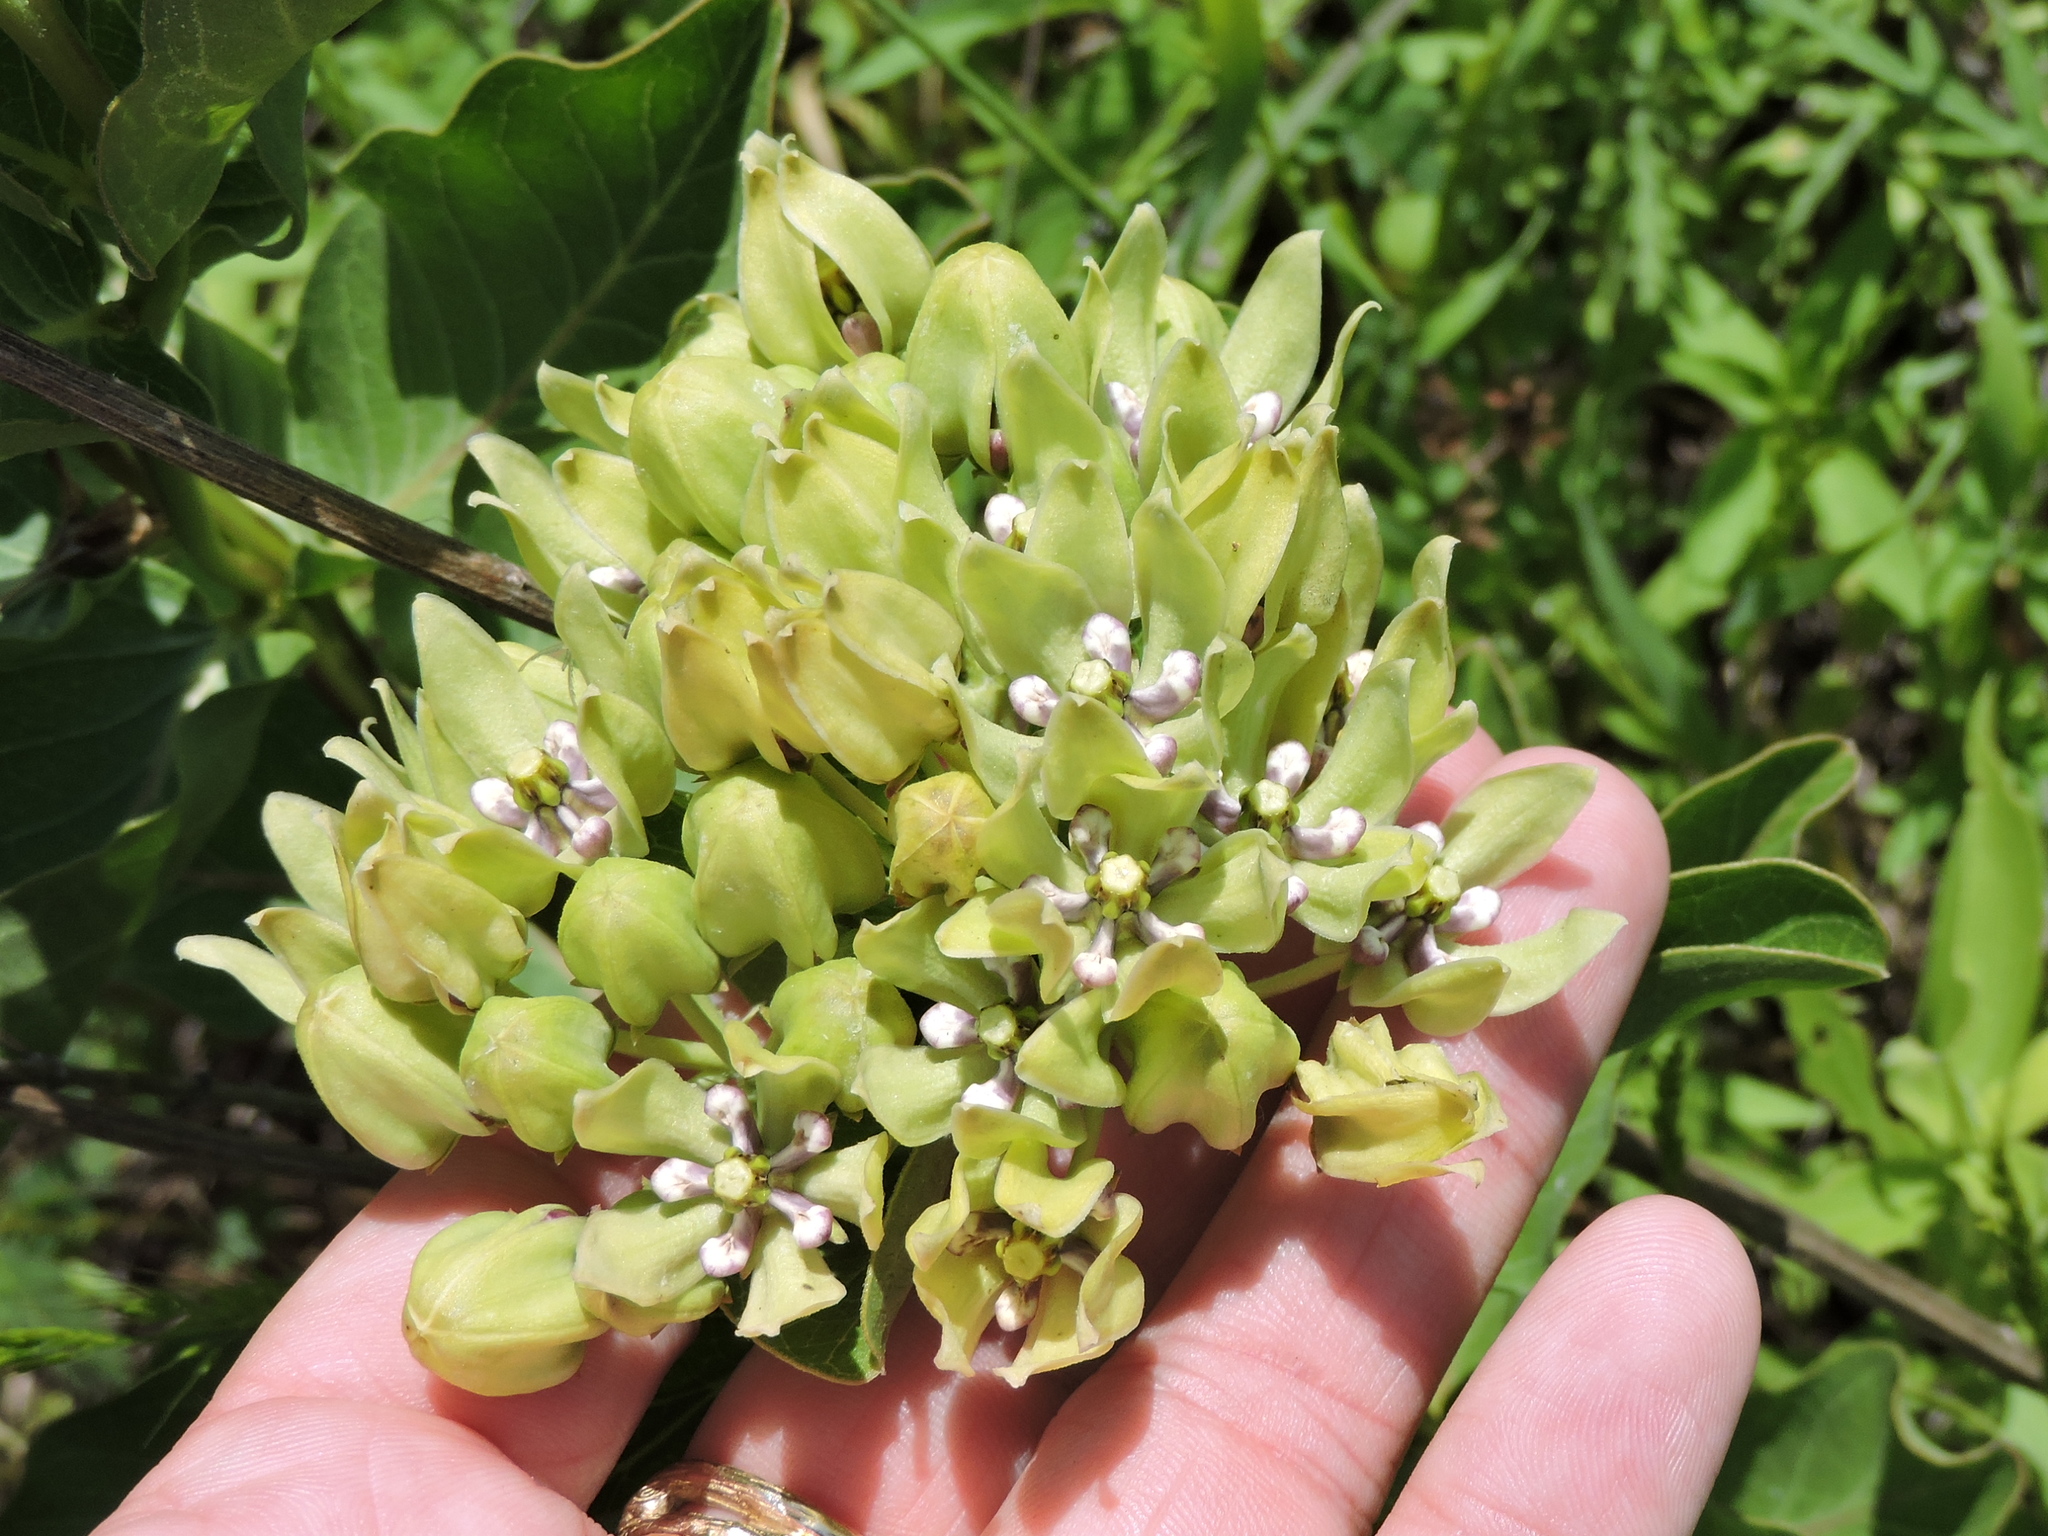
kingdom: Plantae
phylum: Tracheophyta
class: Magnoliopsida
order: Gentianales
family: Apocynaceae
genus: Asclepias
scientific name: Asclepias viridis
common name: Antelope-horns
